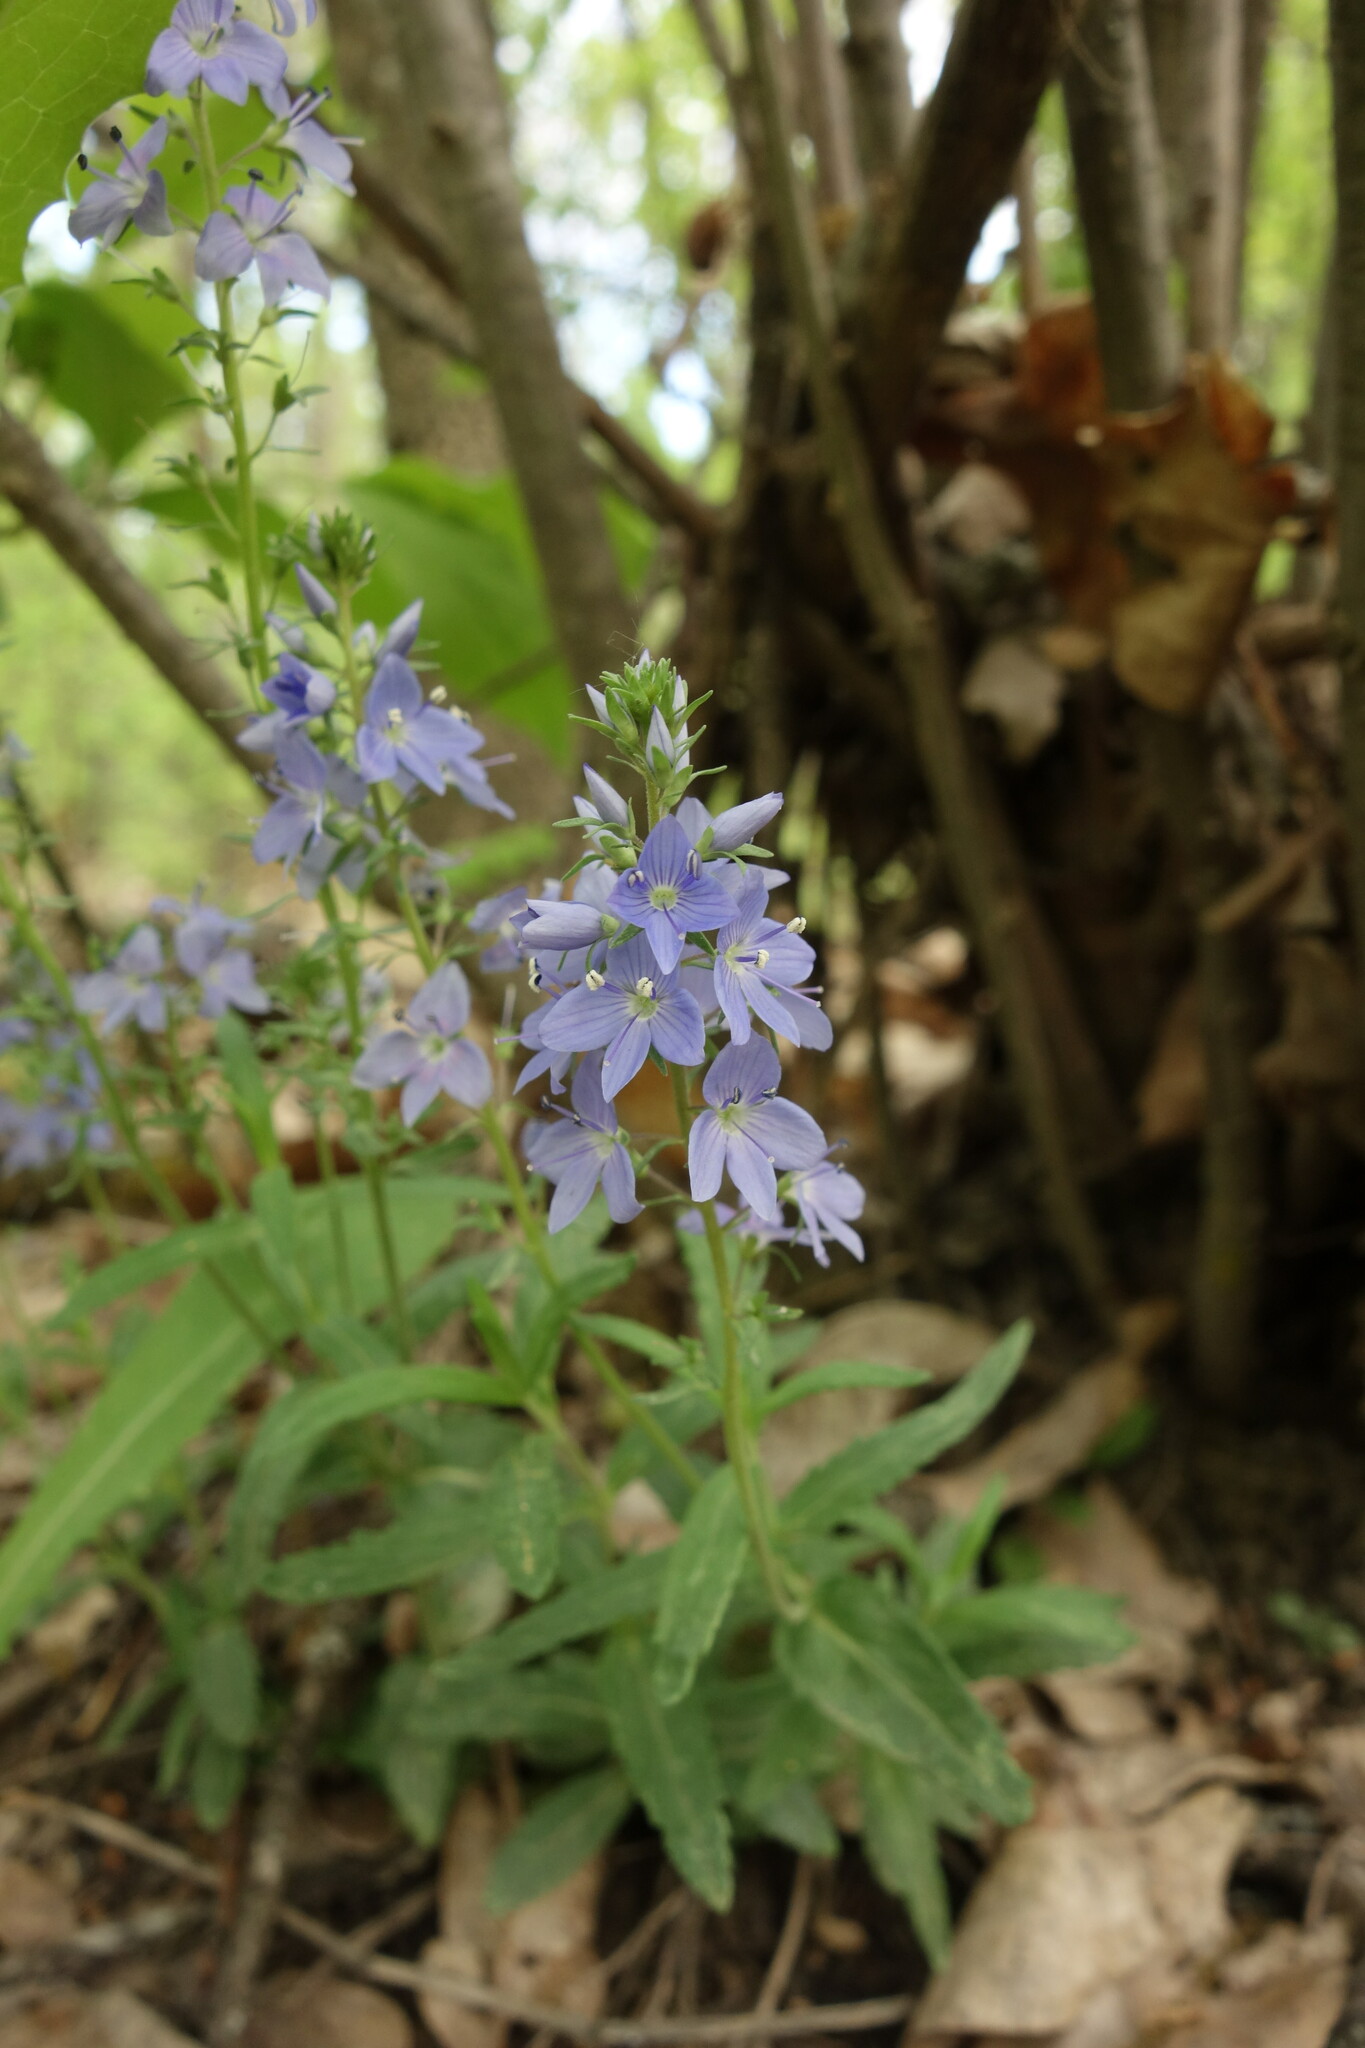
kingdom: Plantae
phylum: Tracheophyta
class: Magnoliopsida
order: Lamiales
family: Plantaginaceae
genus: Veronica
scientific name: Veronica prostrata
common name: Prostrate speedwell
